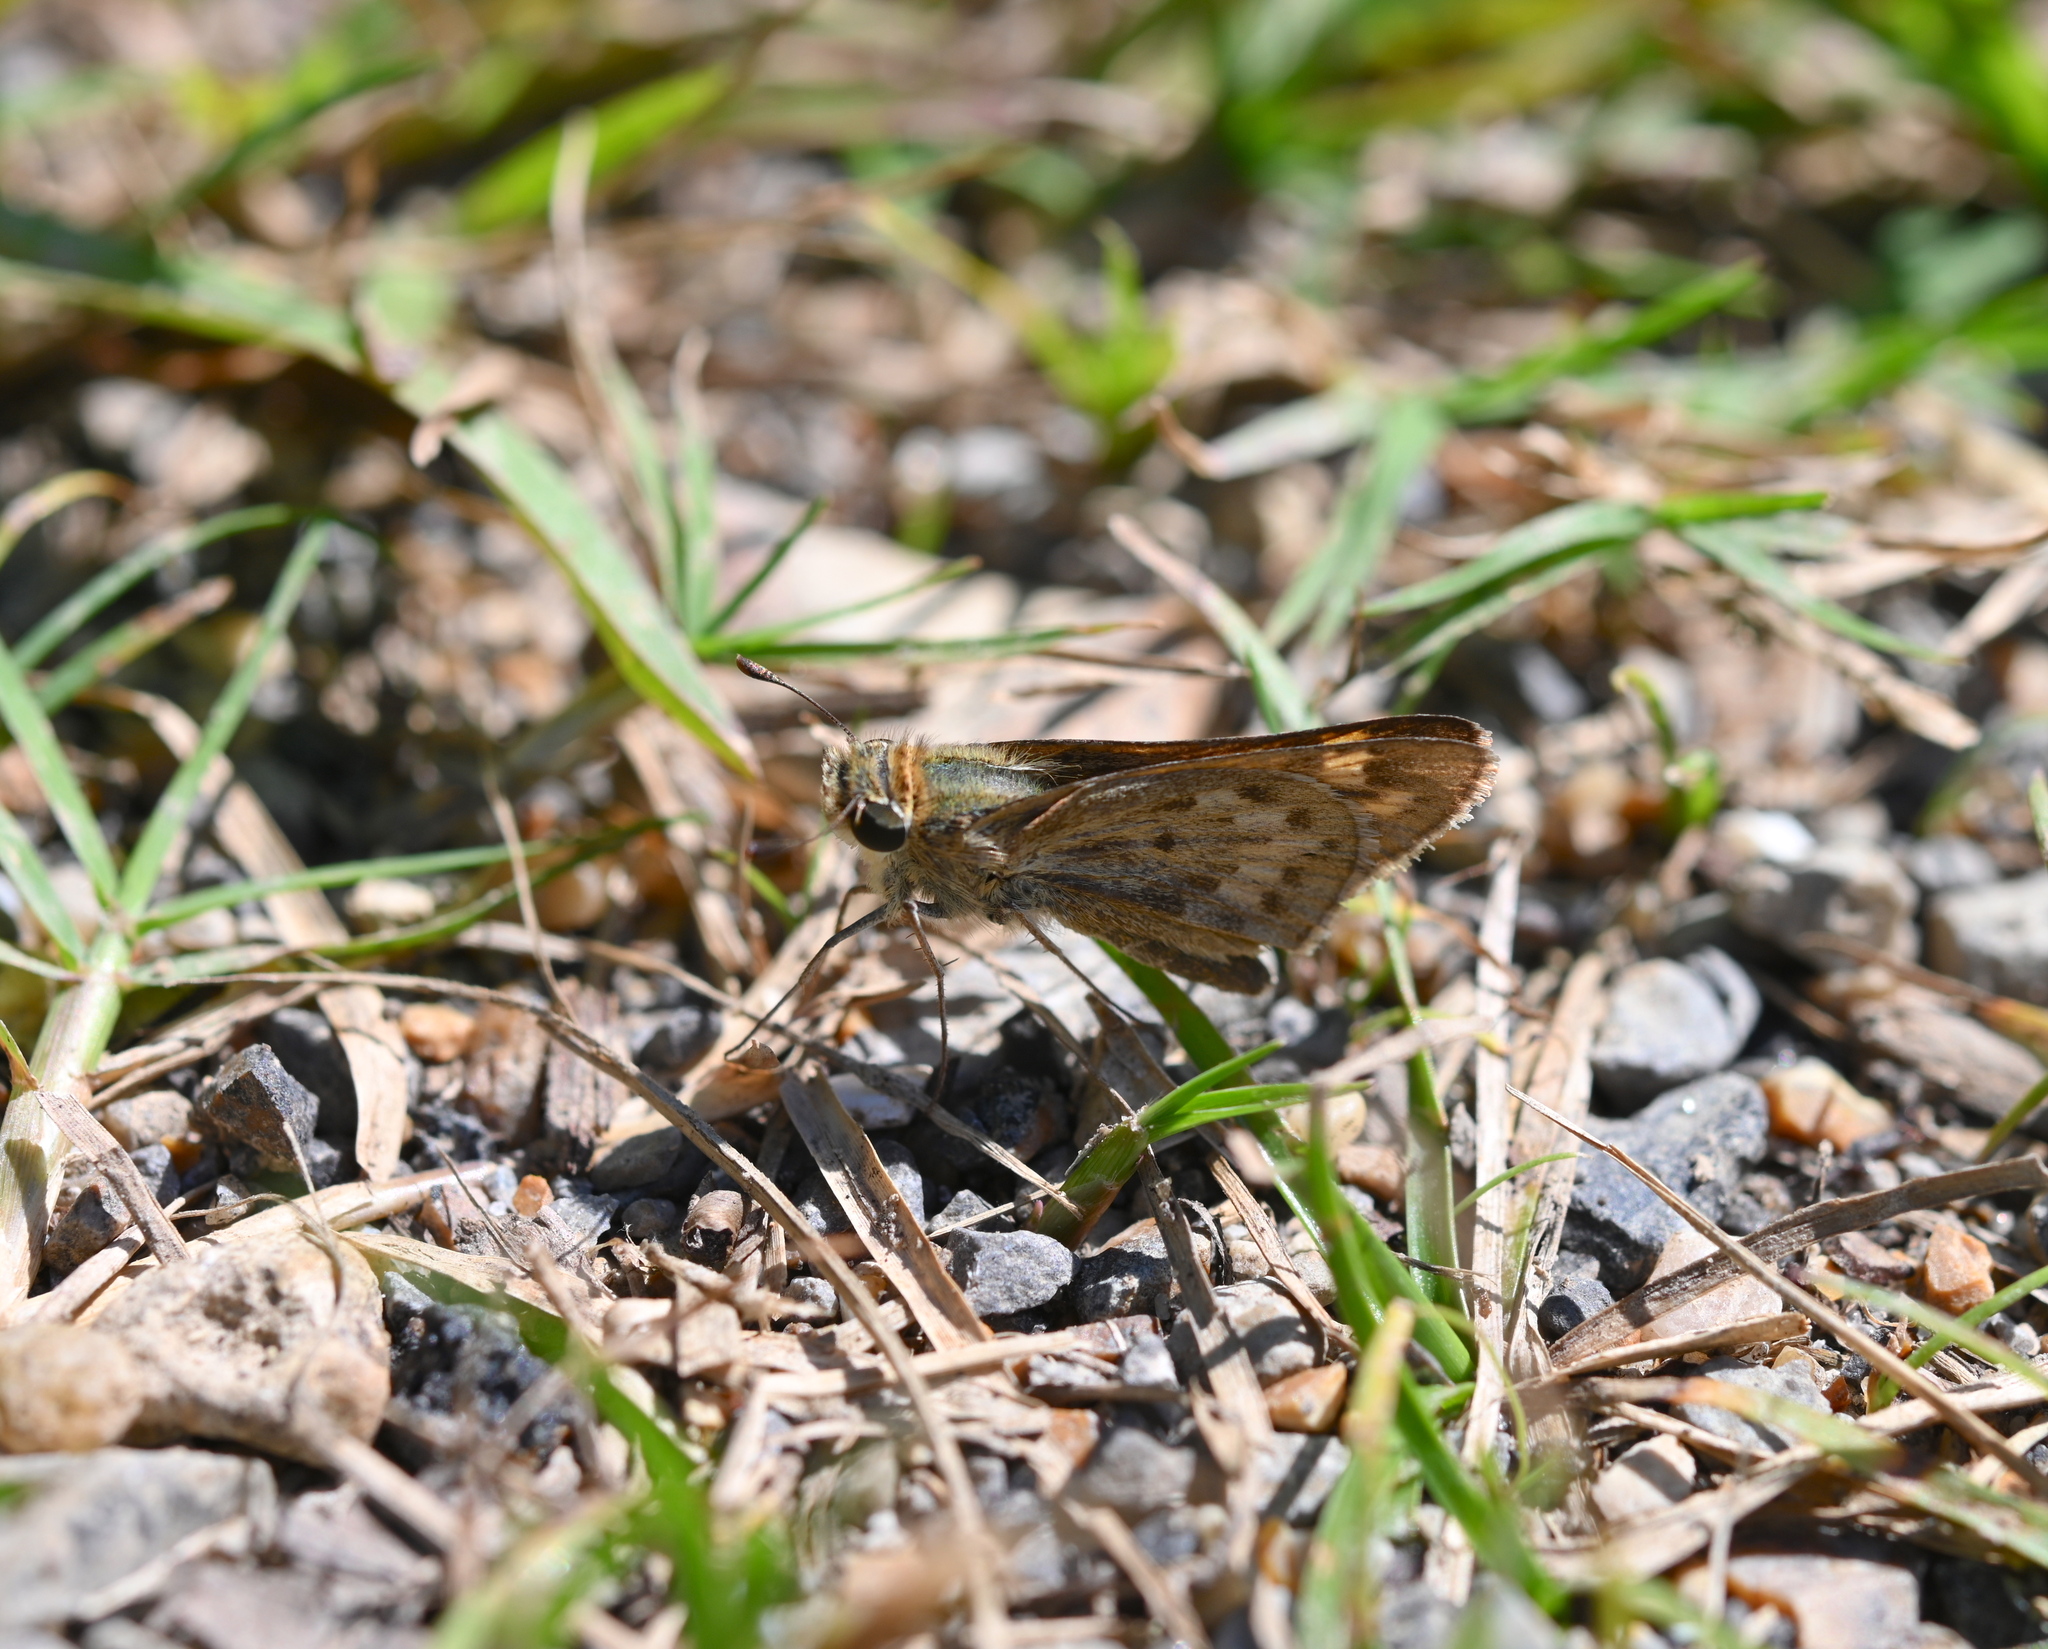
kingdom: Animalia
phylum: Arthropoda
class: Insecta
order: Lepidoptera
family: Hesperiidae
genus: Hylephila
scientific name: Hylephila phyleus
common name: Fiery skipper
